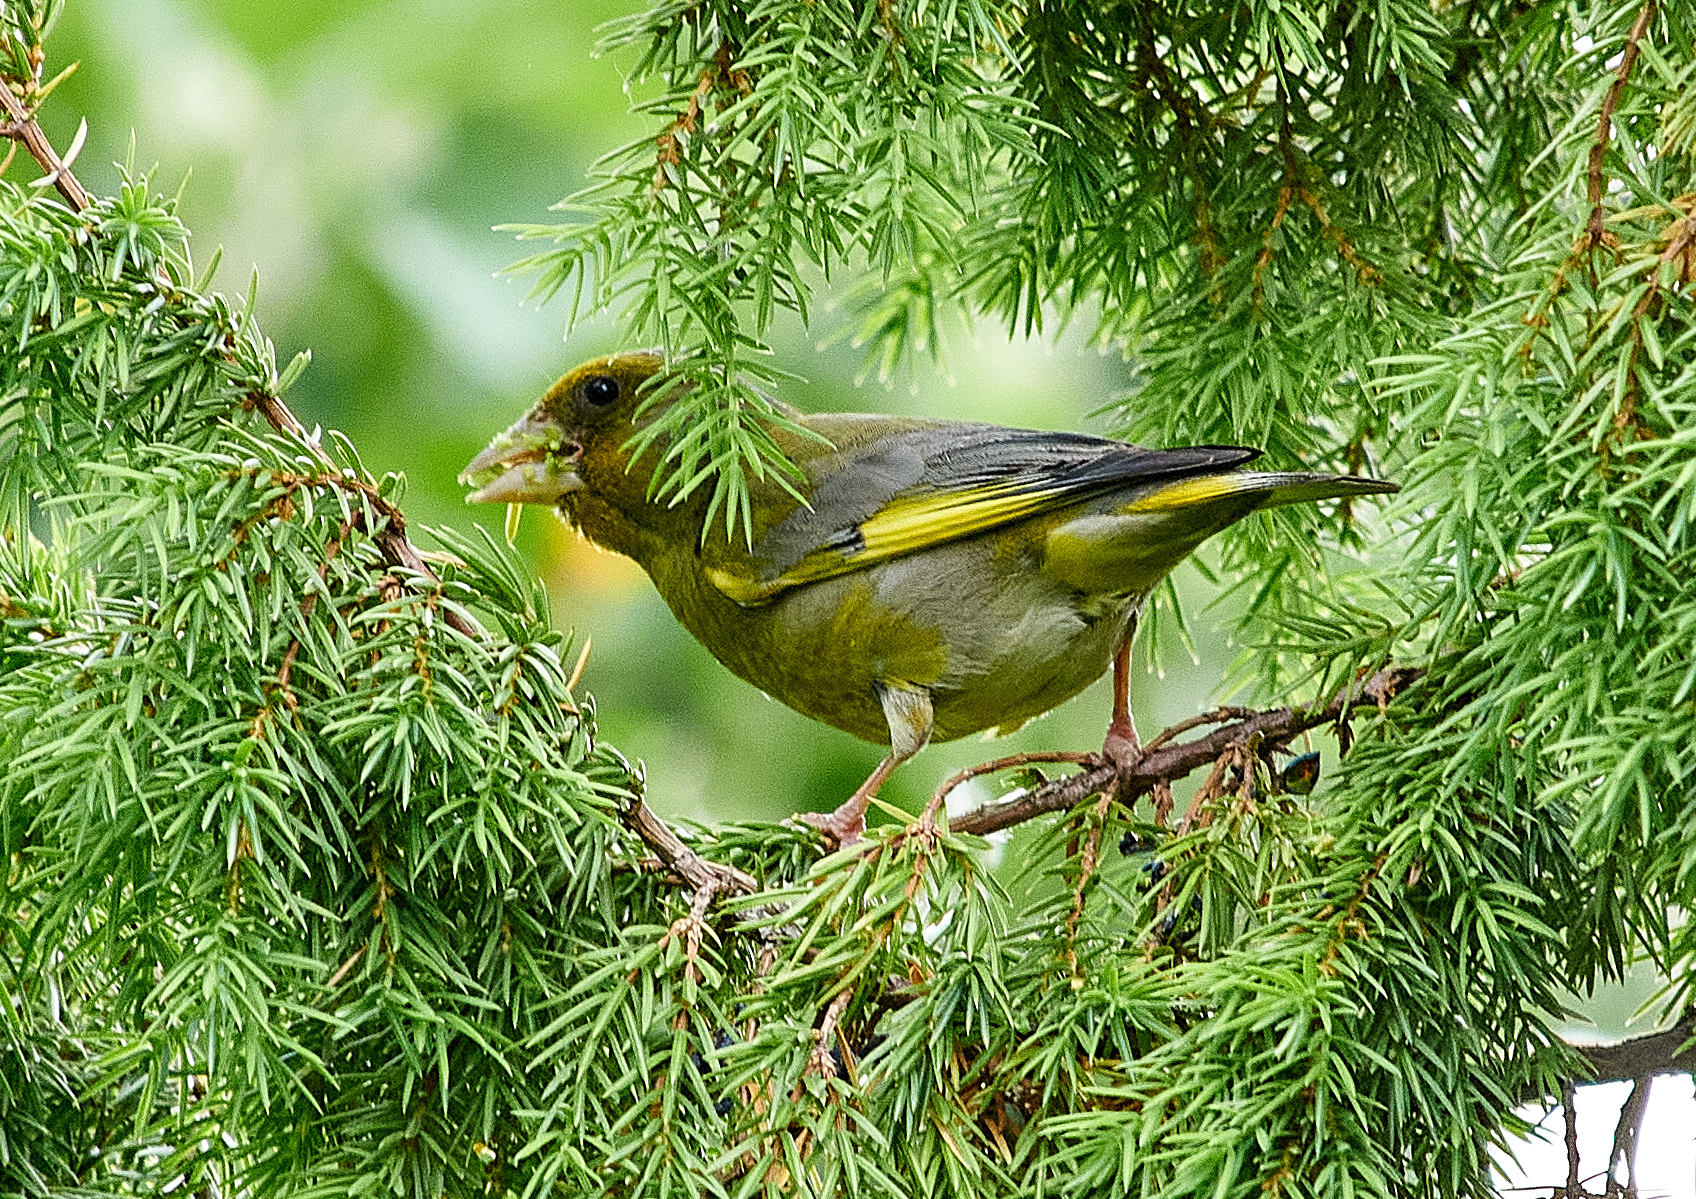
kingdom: Plantae
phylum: Tracheophyta
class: Liliopsida
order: Poales
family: Poaceae
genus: Chloris
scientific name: Chloris chloris
